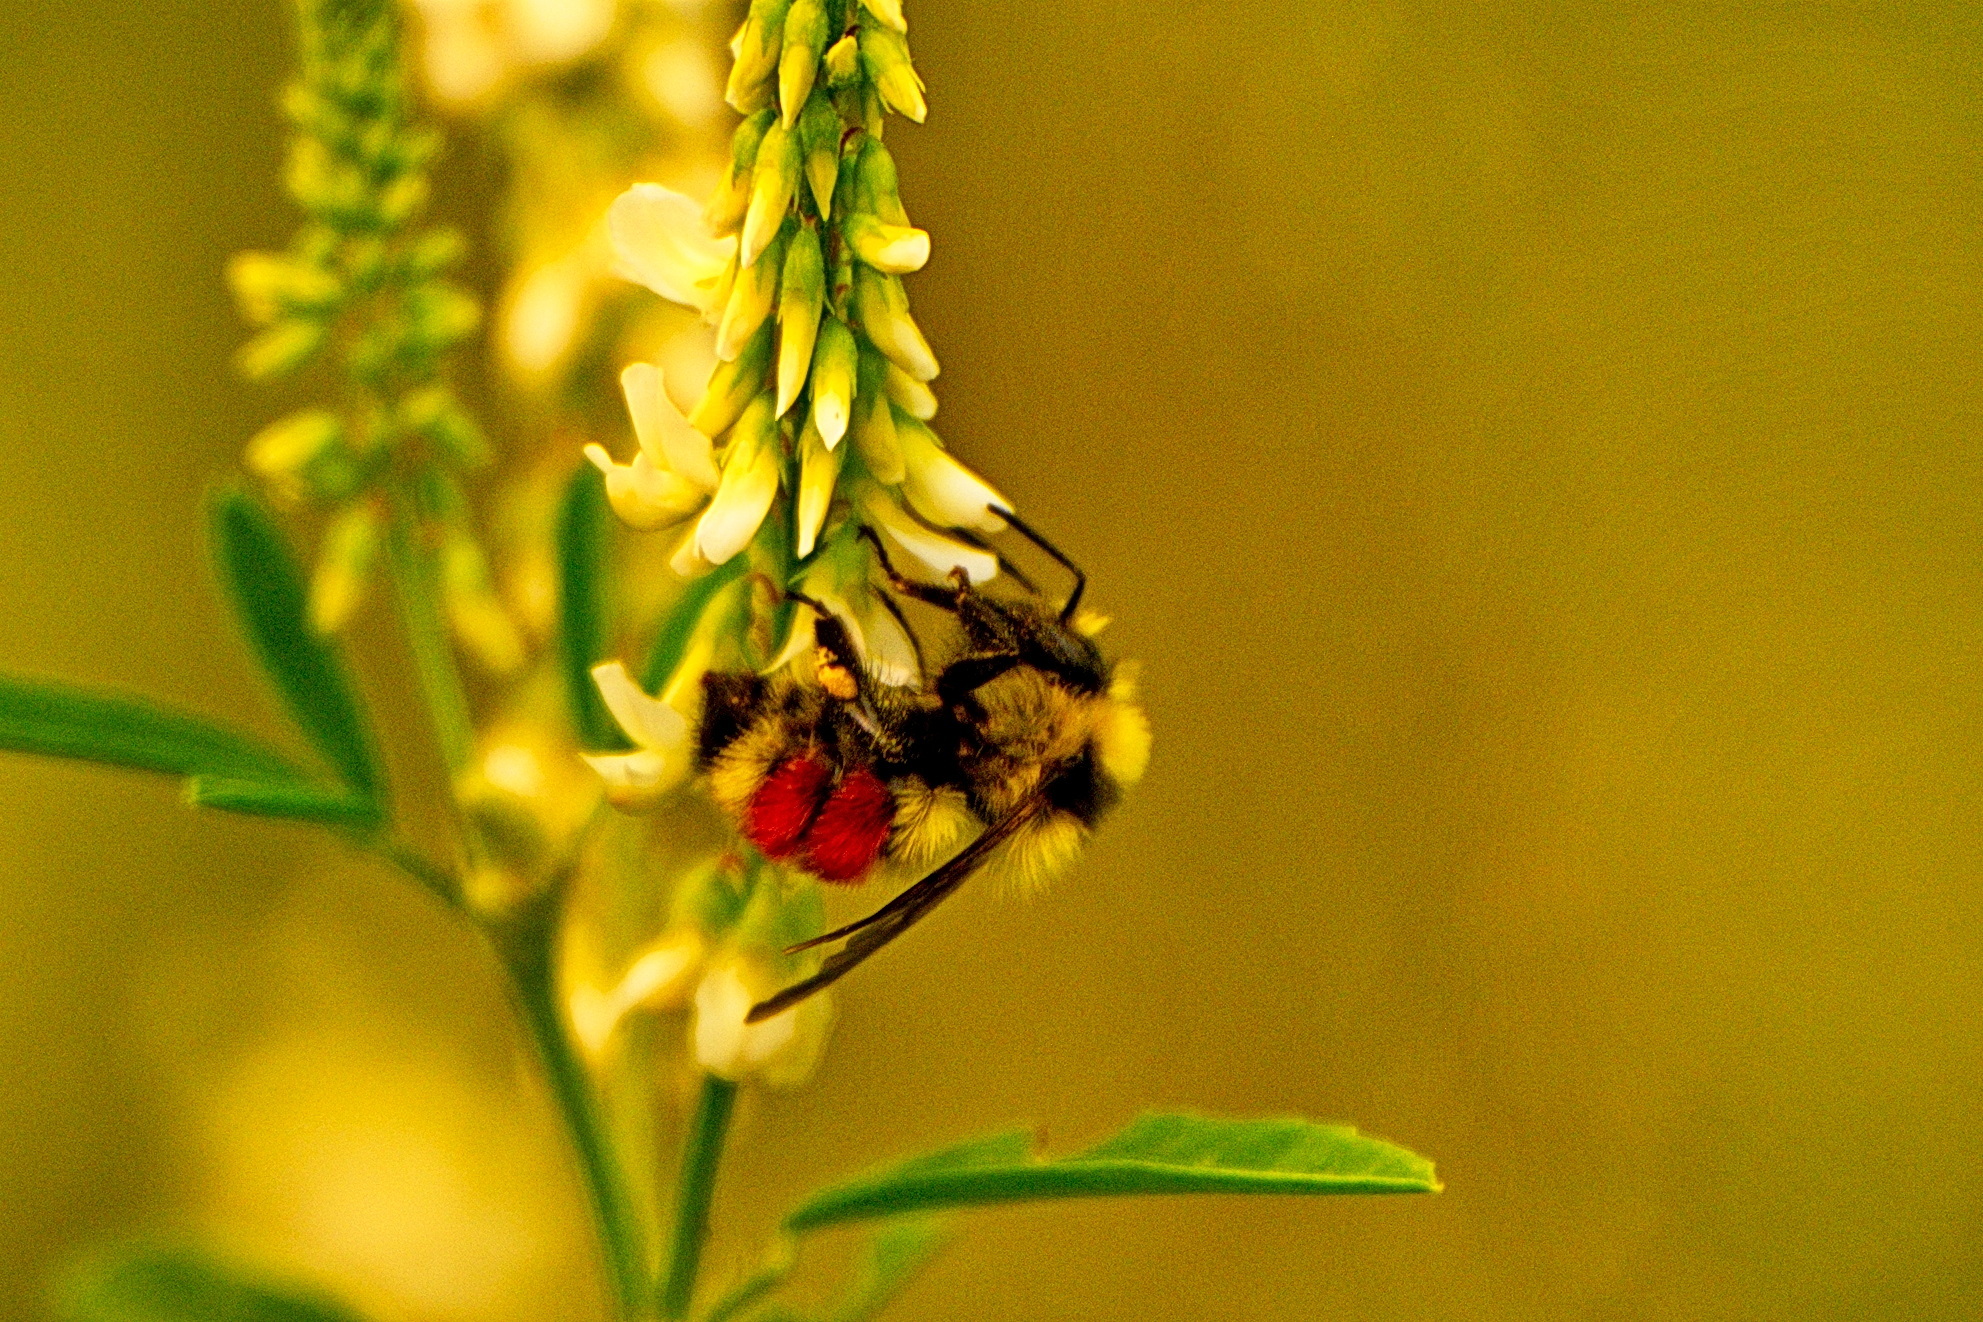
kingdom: Animalia
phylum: Arthropoda
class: Insecta
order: Hymenoptera
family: Apidae
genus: Bombus
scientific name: Bombus huntii
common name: Hunt bumble bee
